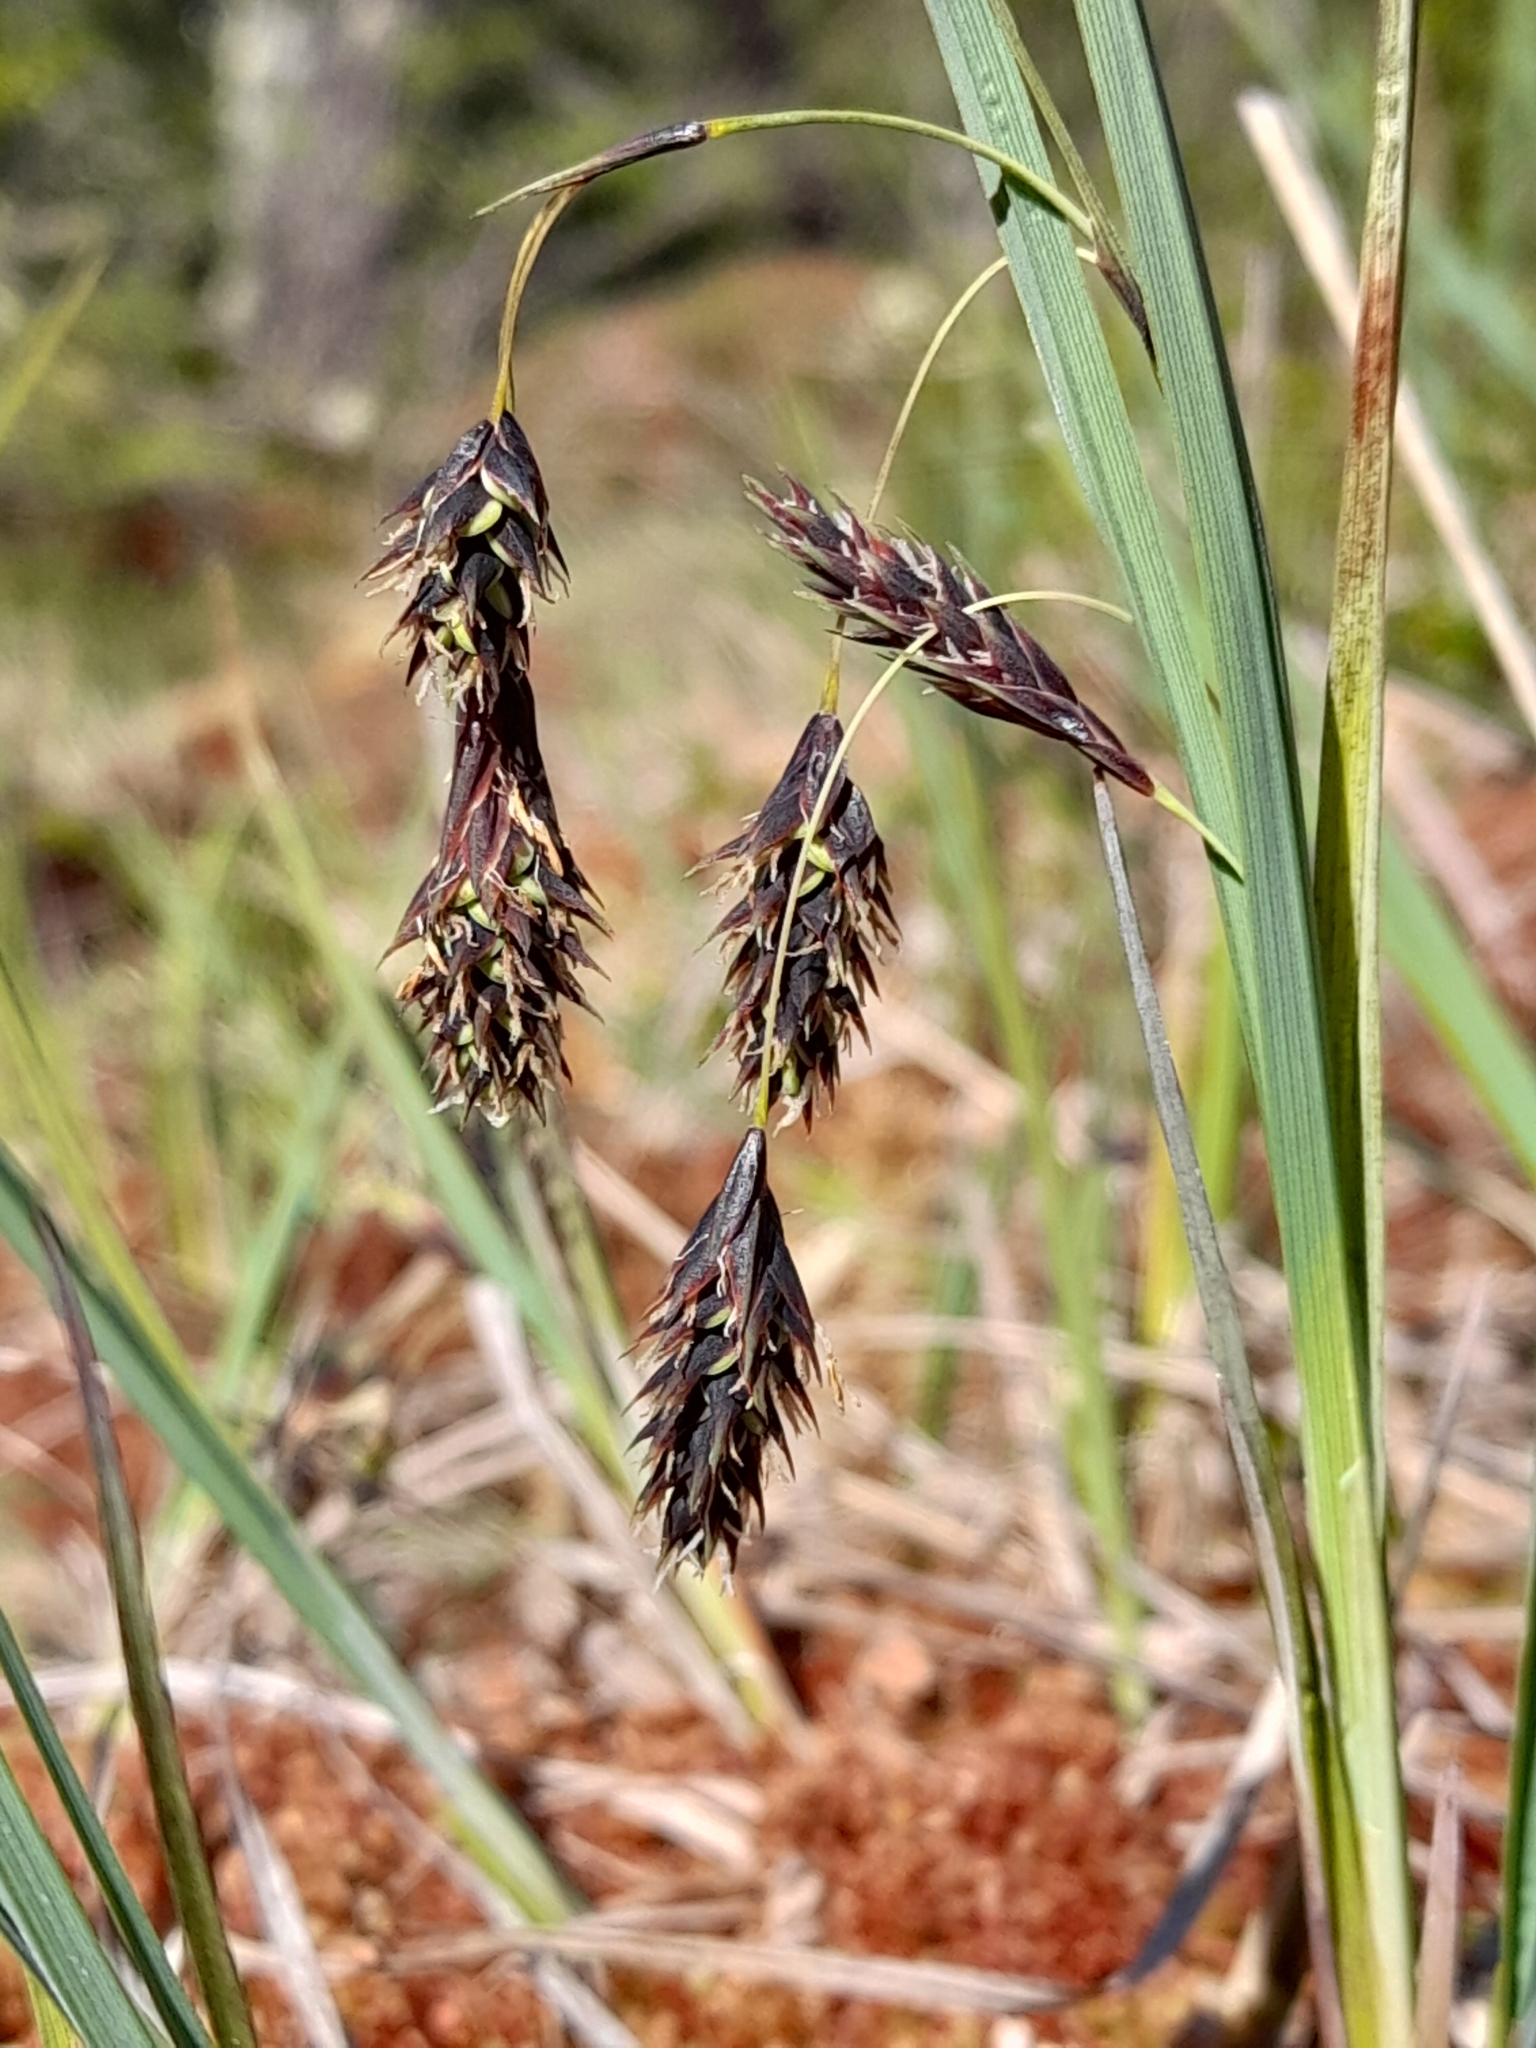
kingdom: Plantae
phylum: Tracheophyta
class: Liliopsida
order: Poales
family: Cyperaceae
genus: Carex
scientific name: Carex magellanica
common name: Bog sedge
